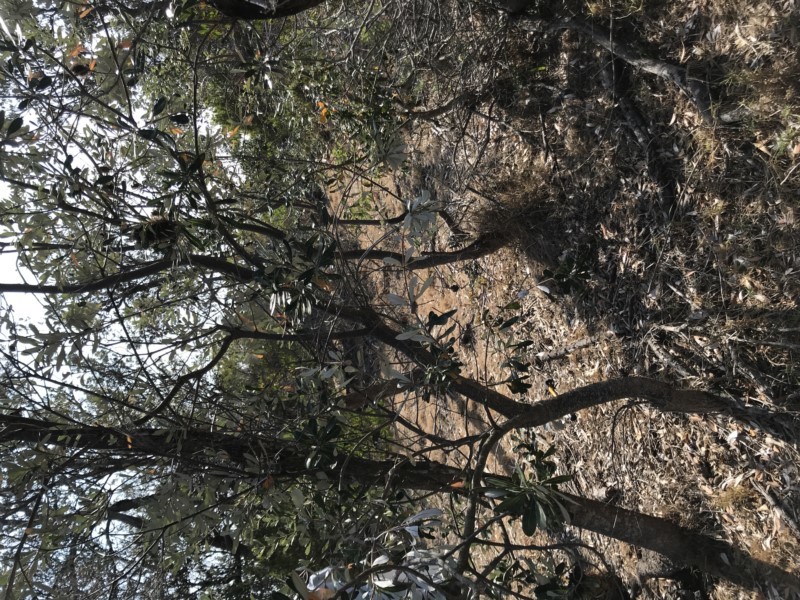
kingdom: Plantae
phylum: Tracheophyta
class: Magnoliopsida
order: Proteales
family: Proteaceae
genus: Banksia
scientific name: Banksia integrifolia
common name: White-honeysuckle
